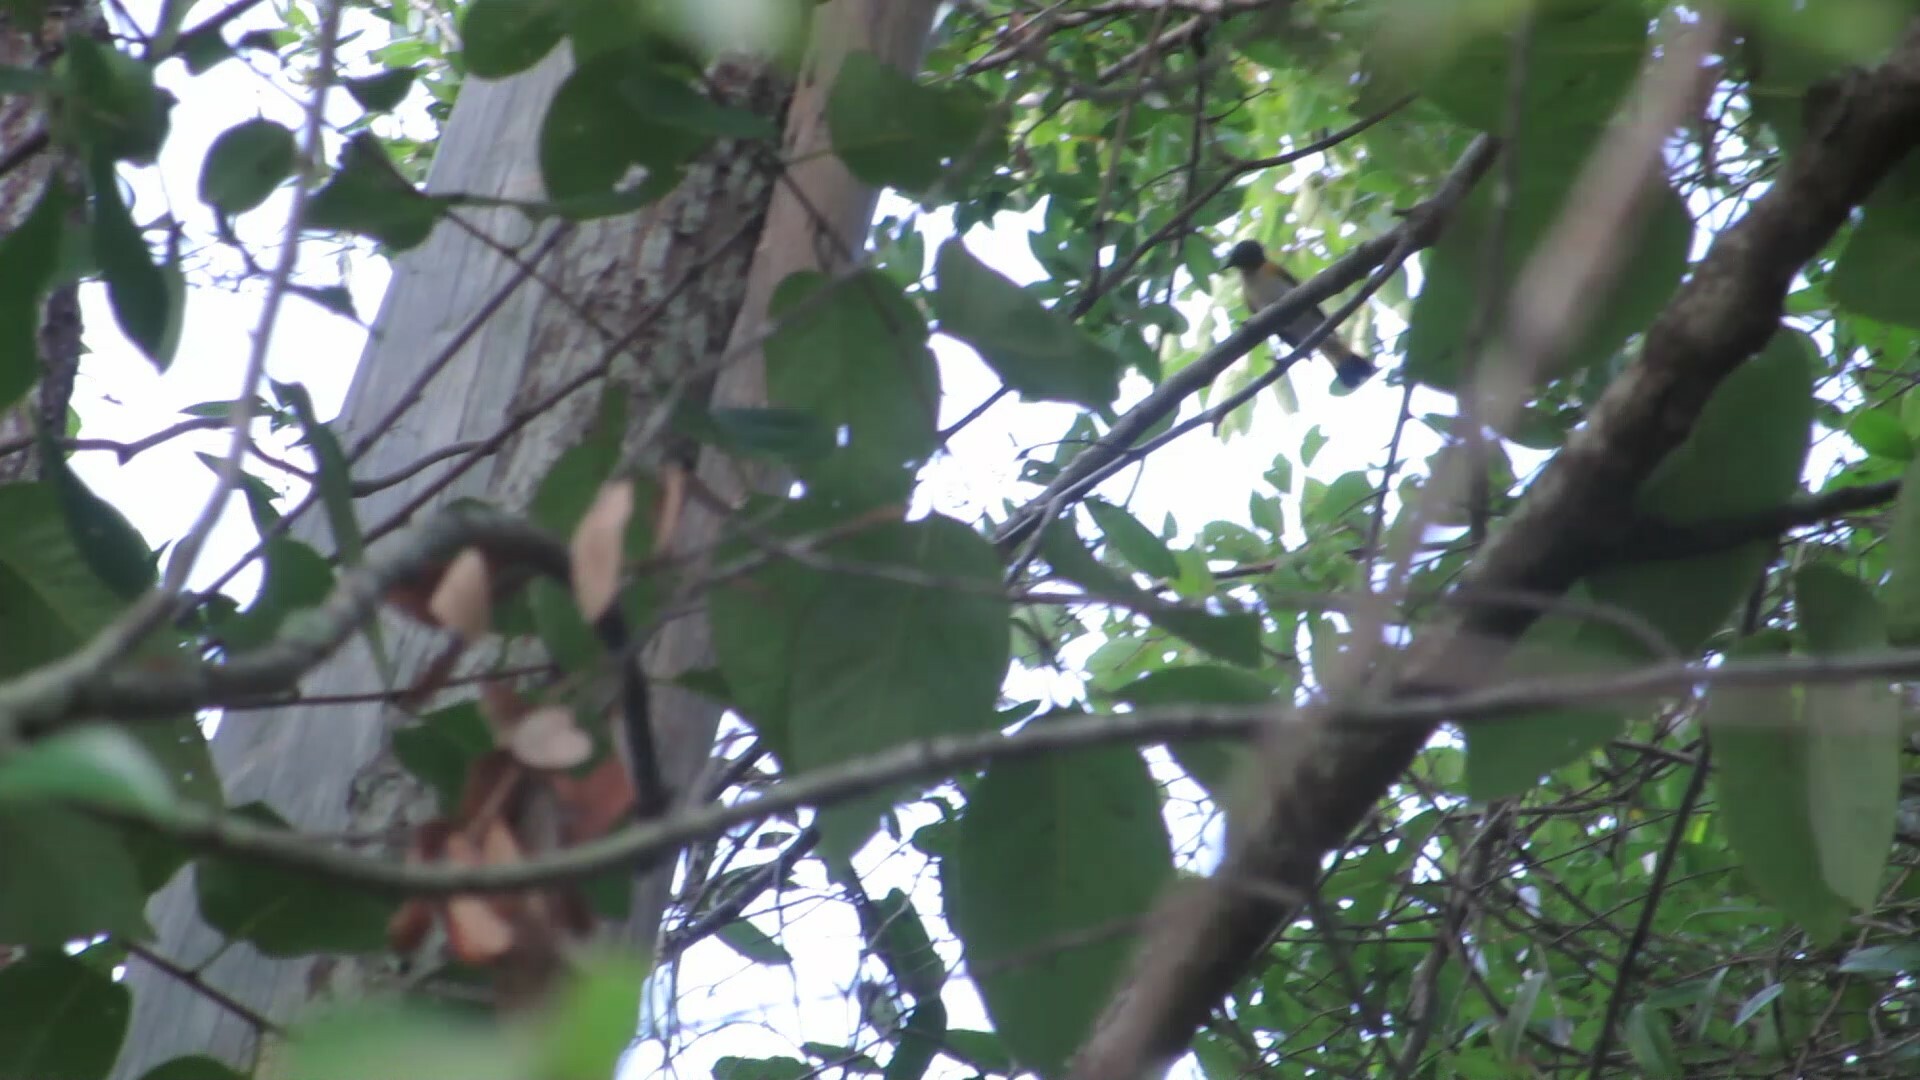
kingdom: Animalia
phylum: Chordata
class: Aves
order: Passeriformes
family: Parulidae
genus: Setophaga
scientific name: Setophaga ruticilla
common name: American redstart
